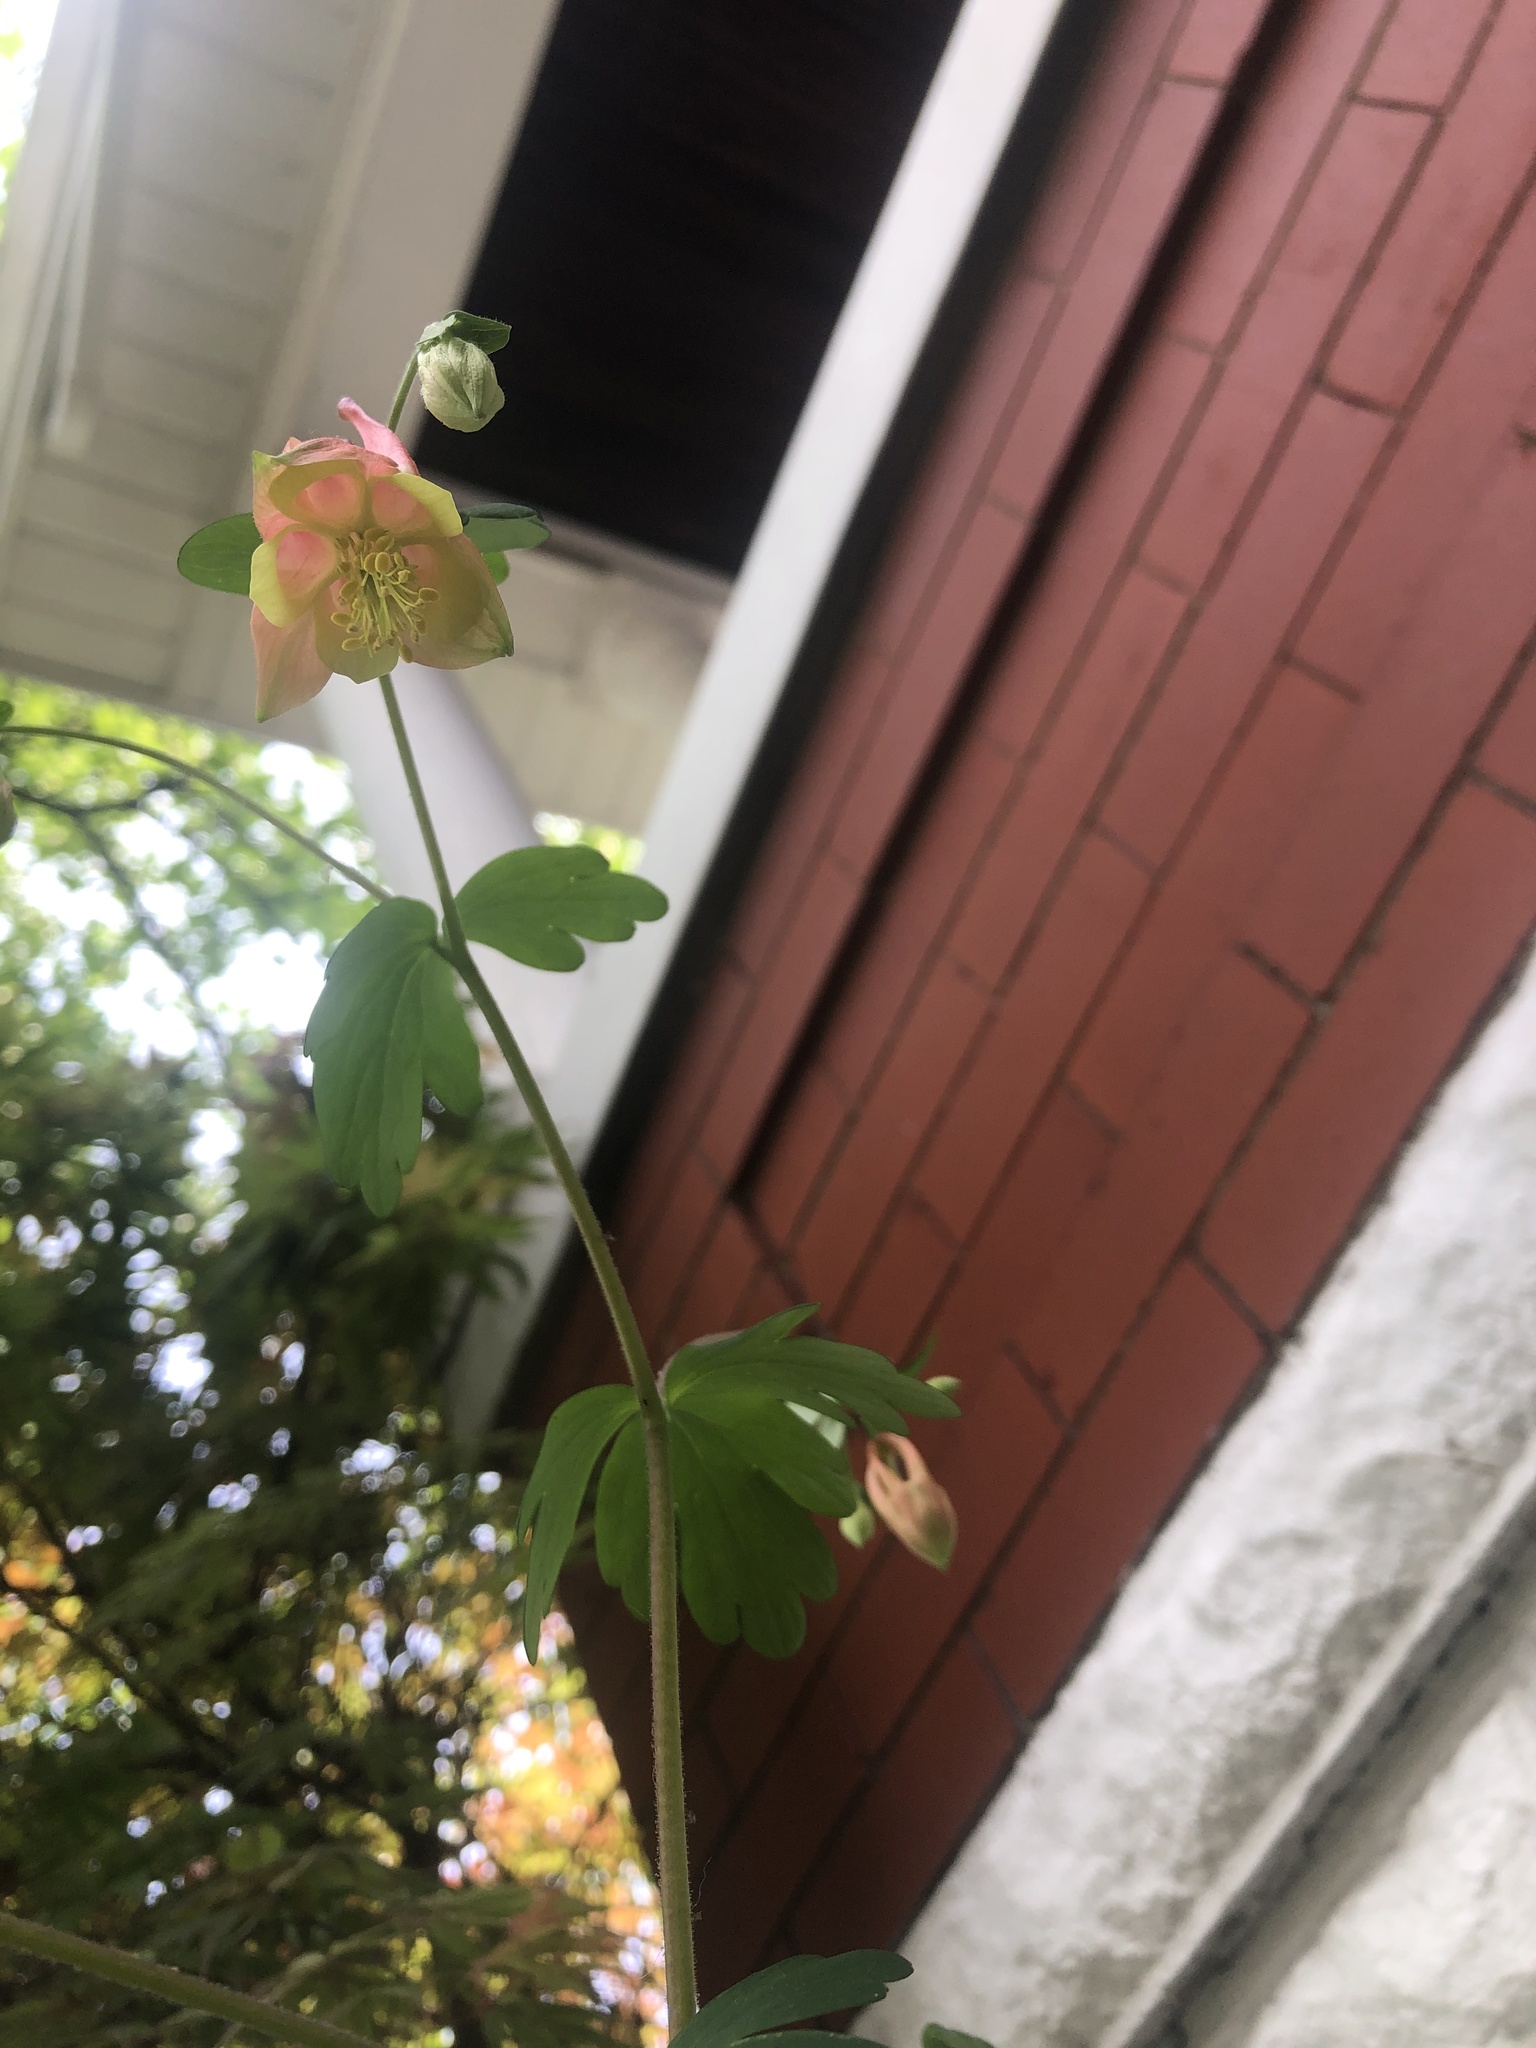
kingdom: Plantae
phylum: Tracheophyta
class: Magnoliopsida
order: Ranunculales
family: Ranunculaceae
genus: Aquilegia
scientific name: Aquilegia canadensis
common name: American columbine
